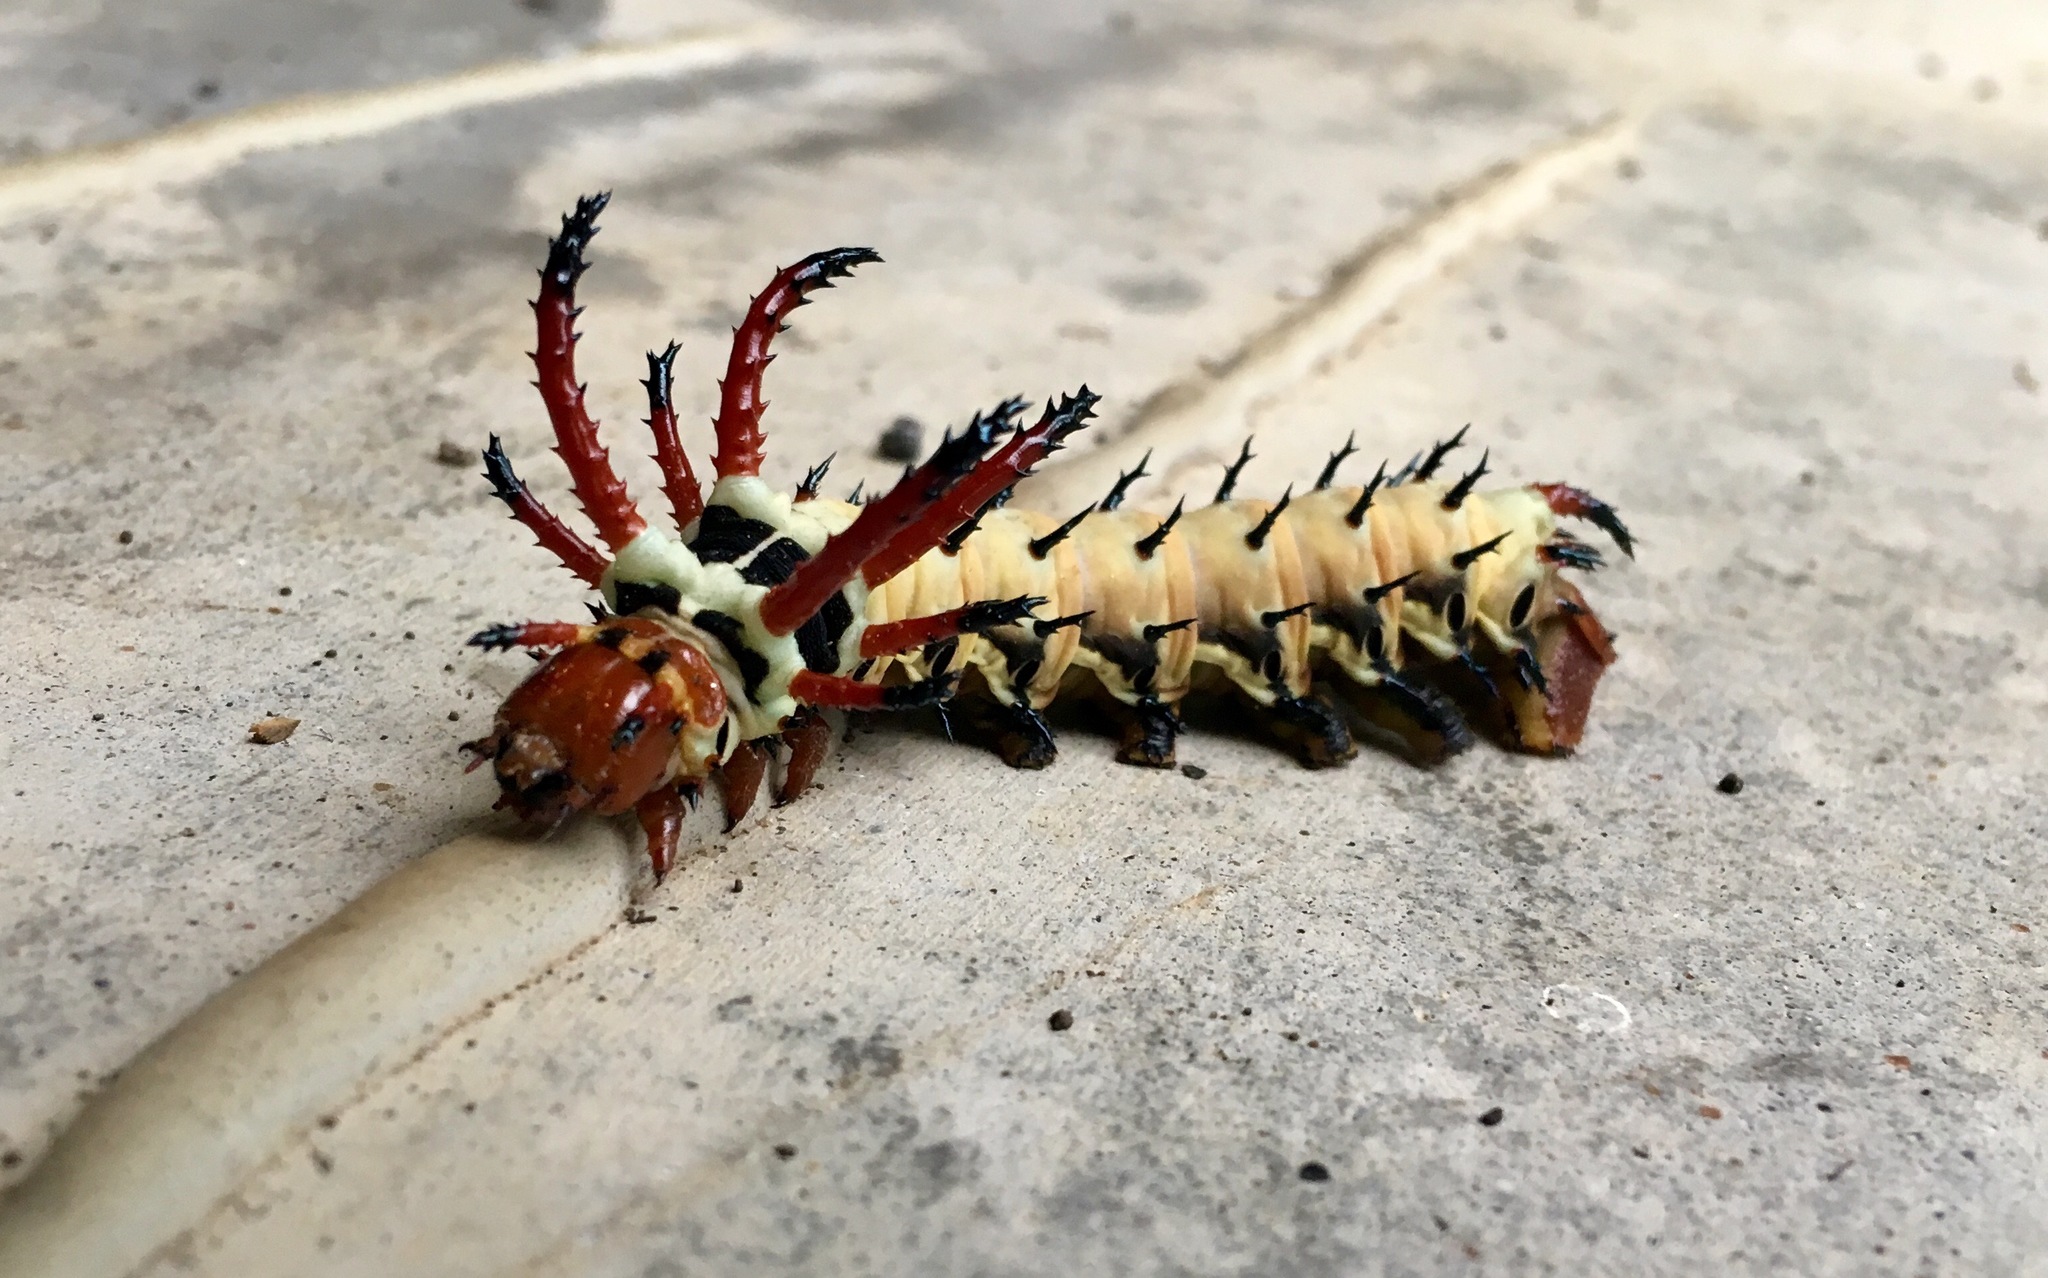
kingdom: Animalia
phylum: Arthropoda
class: Insecta
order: Lepidoptera
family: Saturniidae
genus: Citheronia
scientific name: Citheronia regalis
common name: Hickory horned devil
